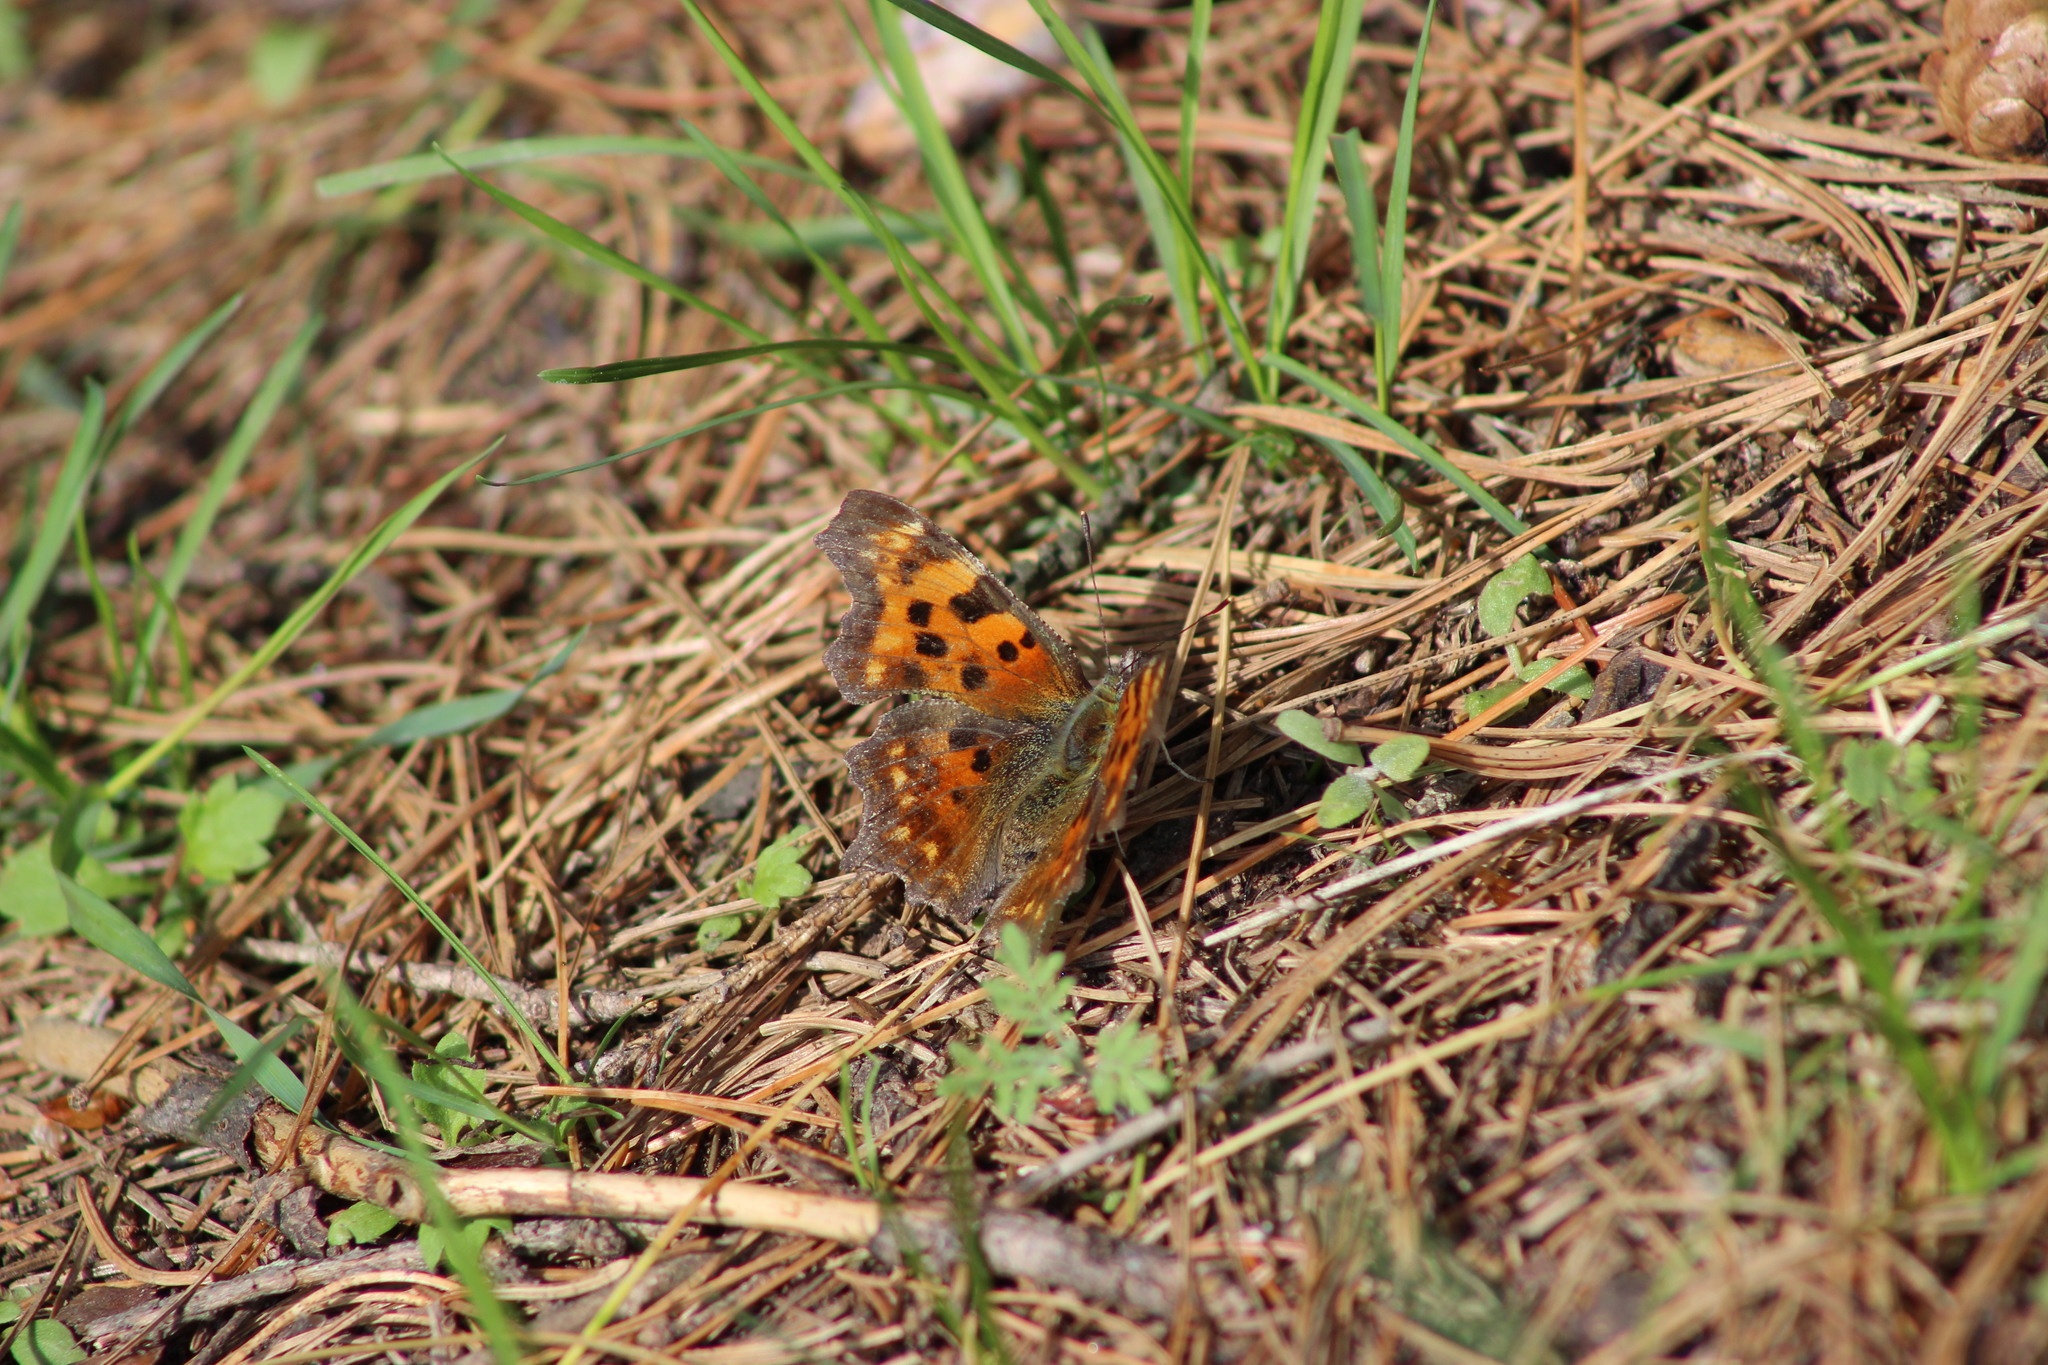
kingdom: Animalia
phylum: Arthropoda
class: Insecta
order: Lepidoptera
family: Nymphalidae
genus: Polygonia
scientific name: Polygonia c-album
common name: Comma
